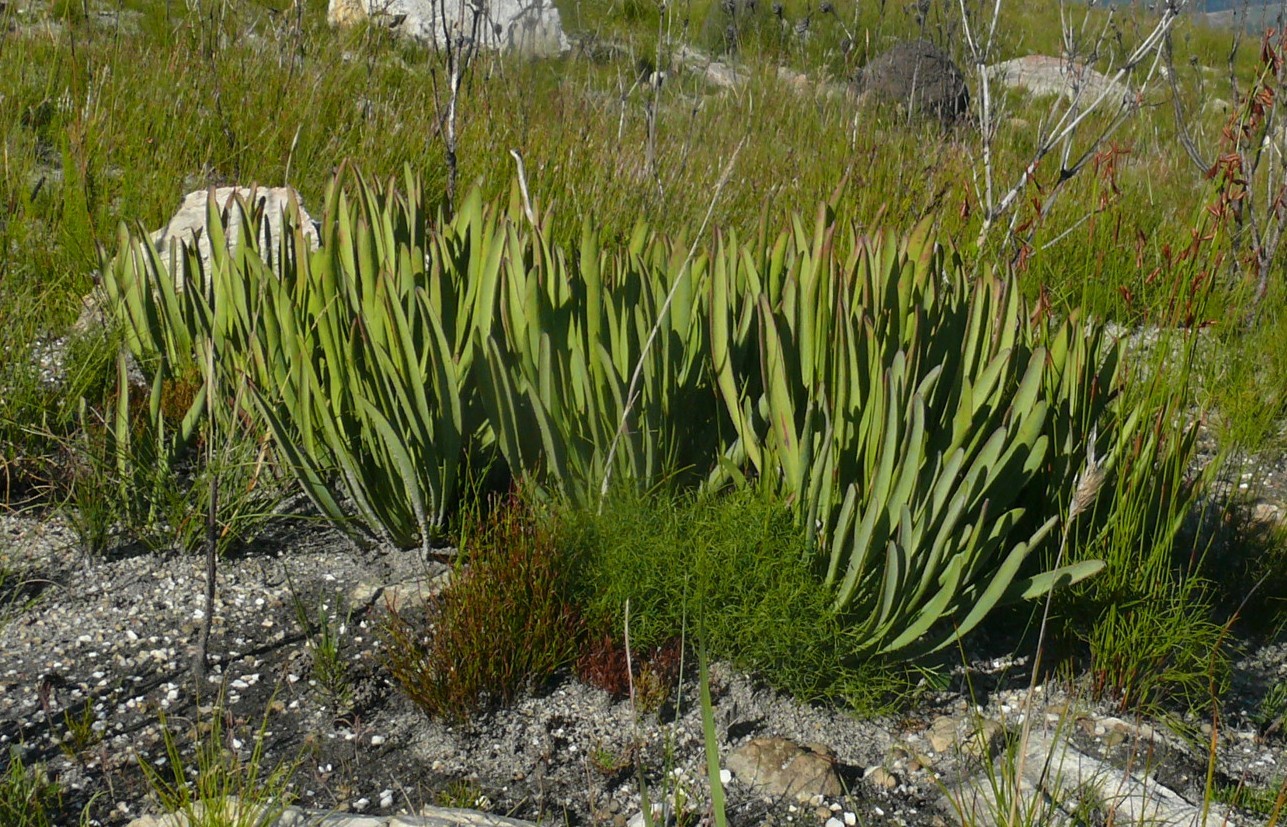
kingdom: Plantae
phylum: Tracheophyta
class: Magnoliopsida
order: Proteales
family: Proteaceae
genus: Protea
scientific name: Protea scabra
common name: Sandpaper-leaf sugarbush
